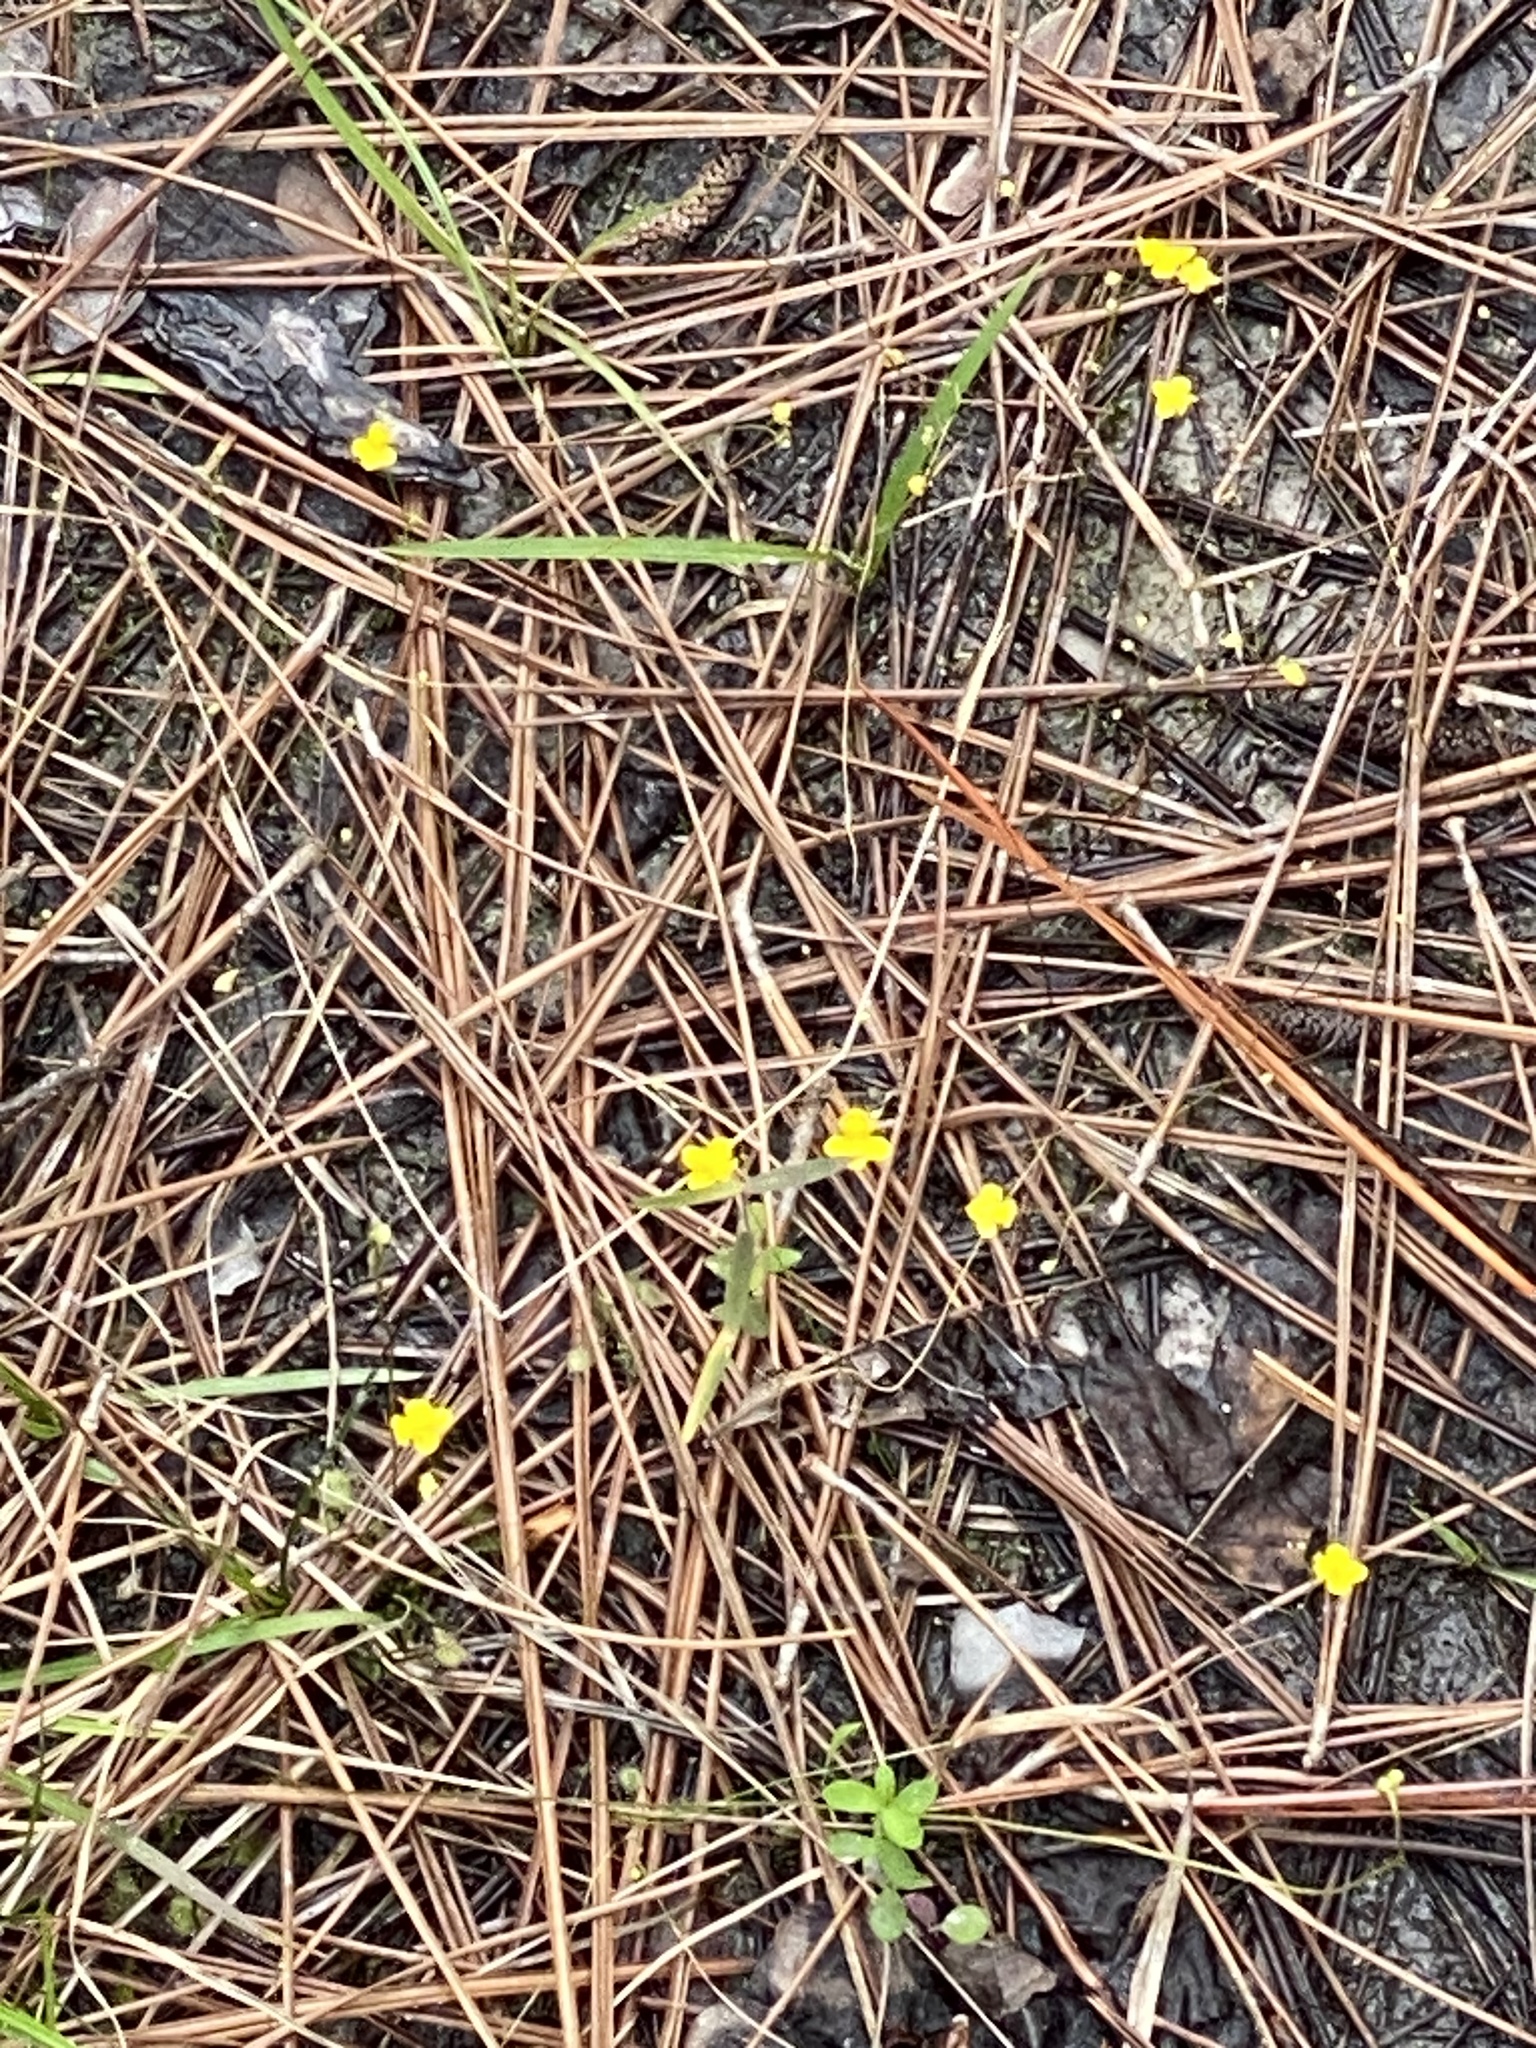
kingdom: Plantae
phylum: Tracheophyta
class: Magnoliopsida
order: Lamiales
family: Lentibulariaceae
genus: Utricularia
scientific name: Utricularia subulata
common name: Tiny bladderwort
